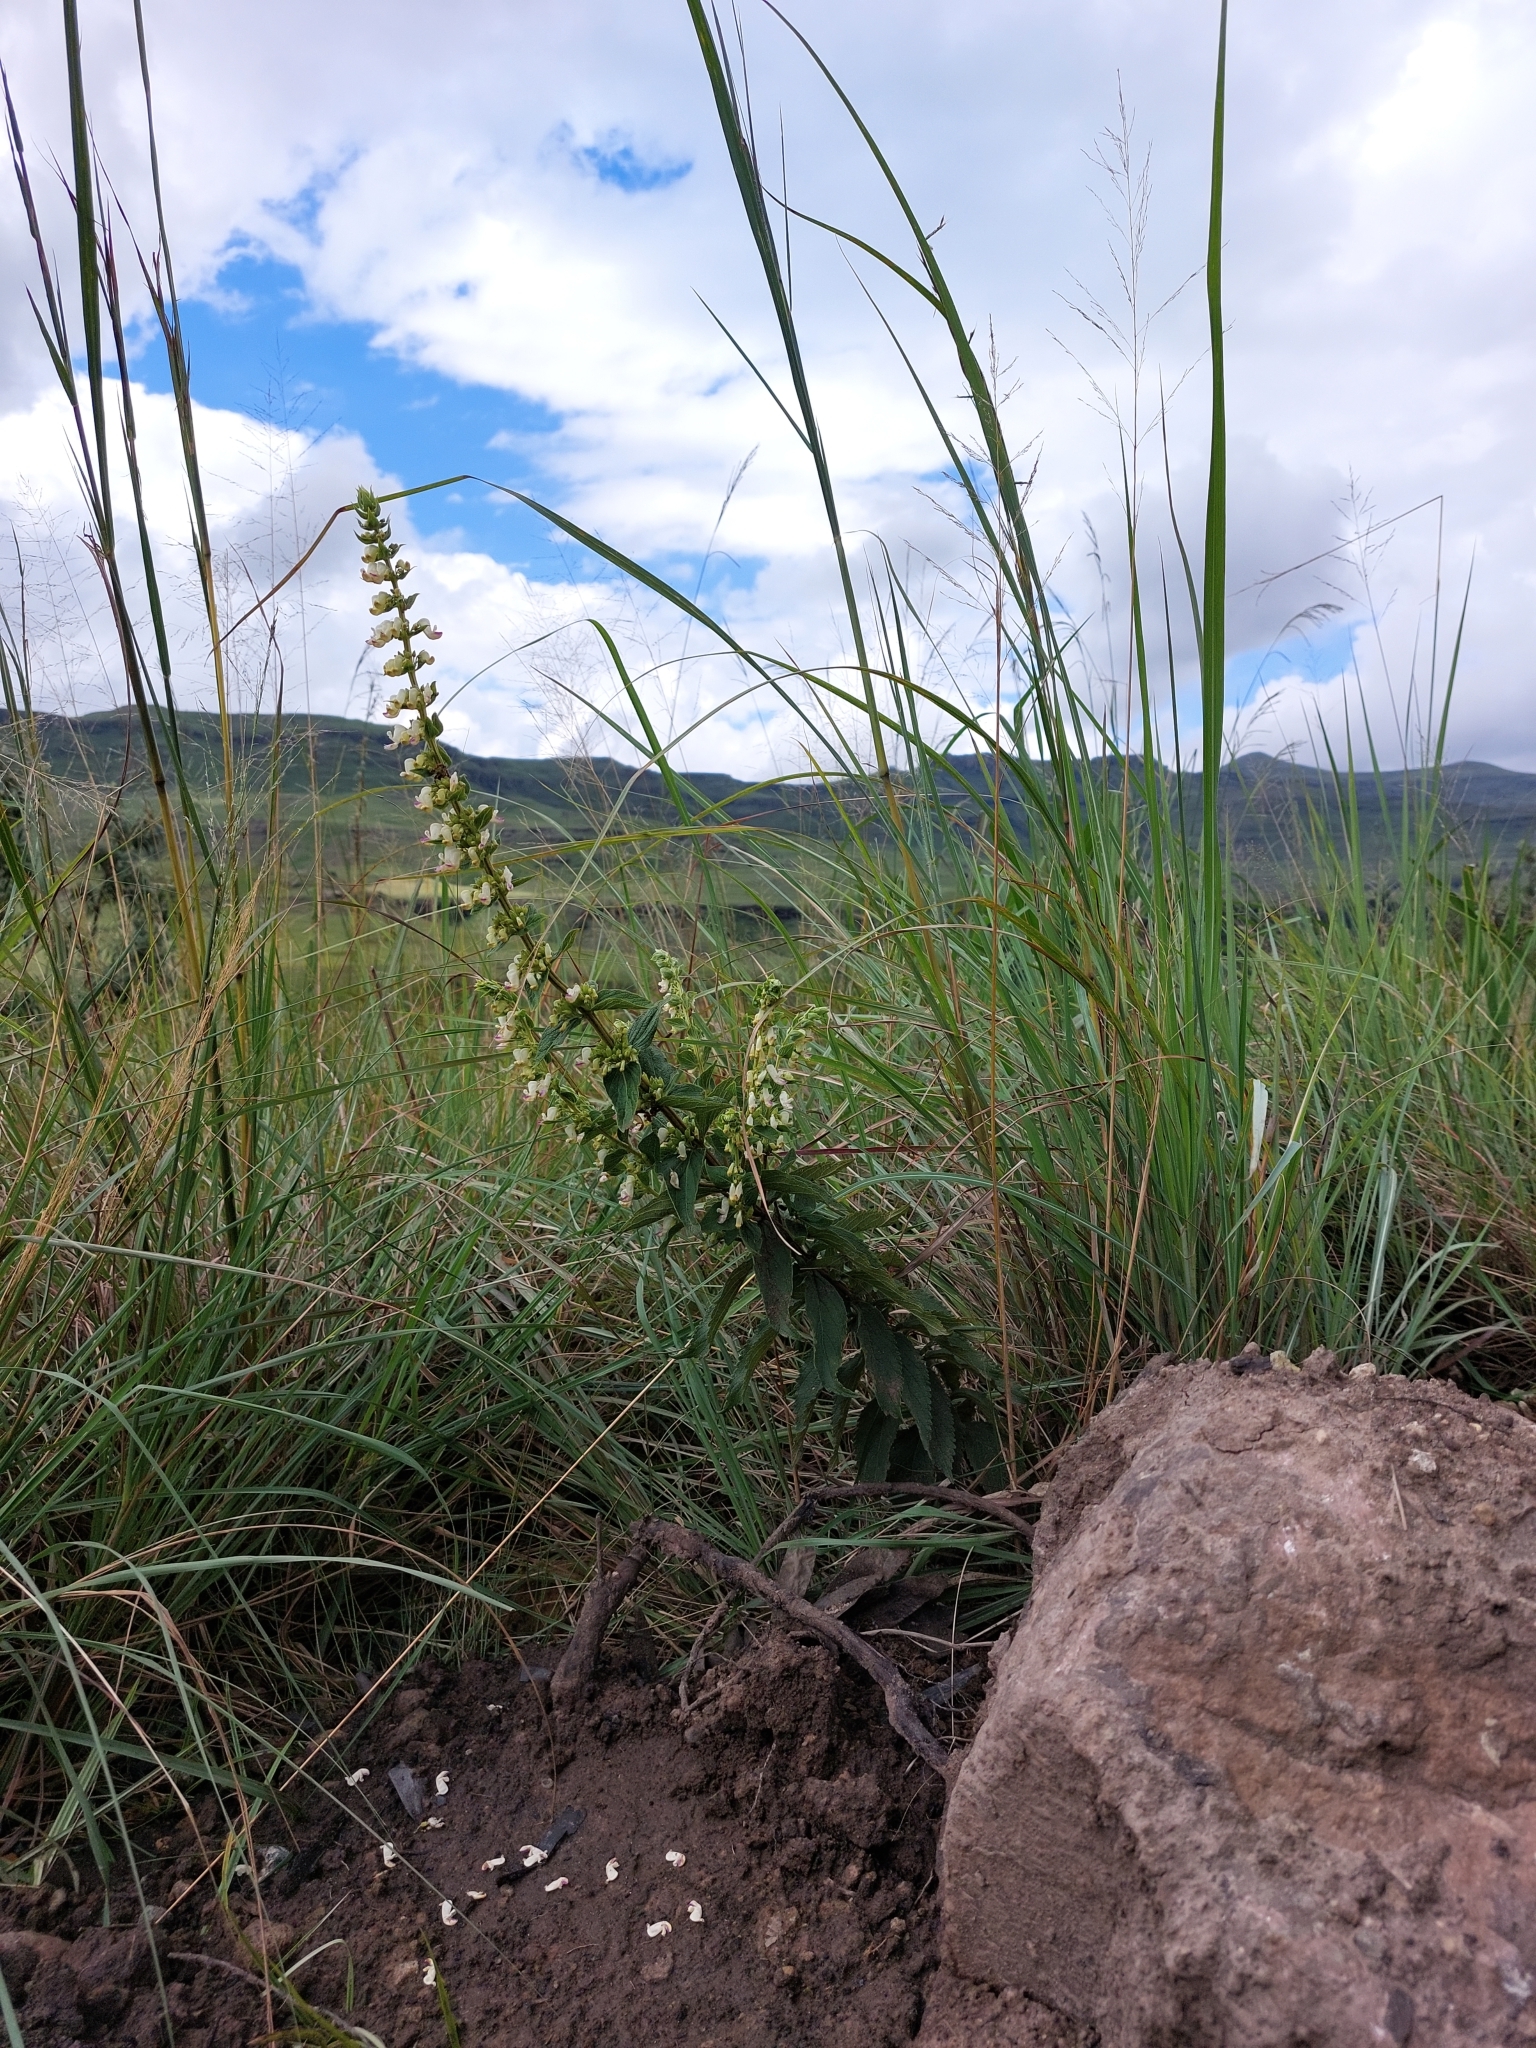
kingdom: Plantae
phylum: Tracheophyta
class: Magnoliopsida
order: Lamiales
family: Lamiaceae
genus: Coleus
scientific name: Coleus calycinus
